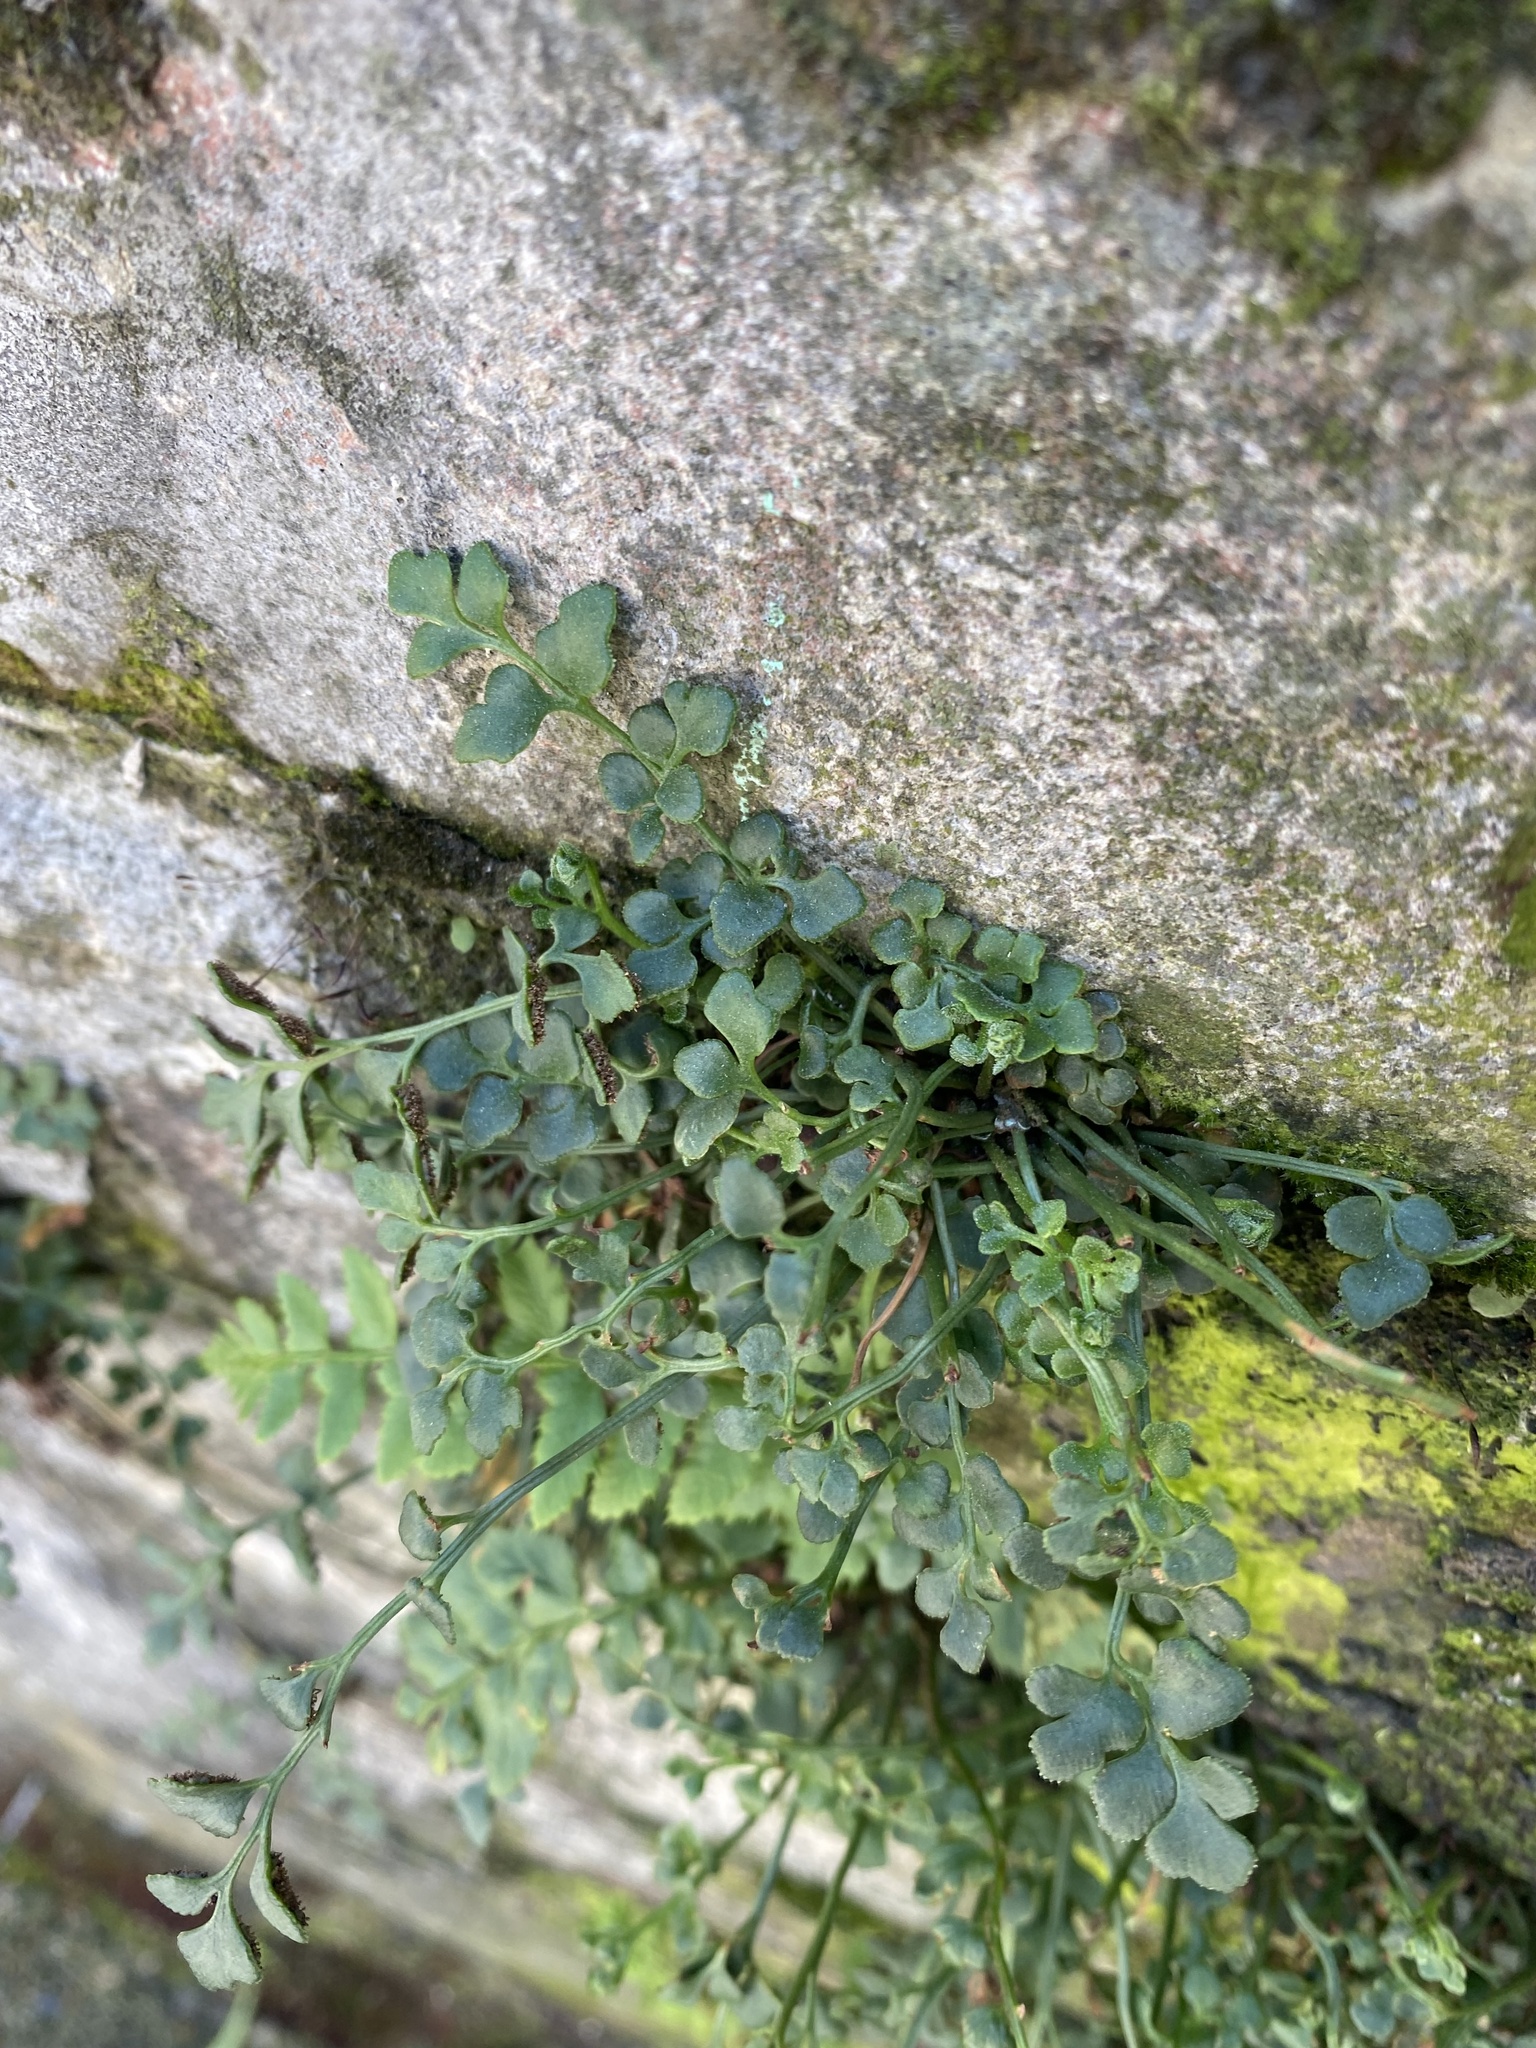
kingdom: Plantae
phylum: Tracheophyta
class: Polypodiopsida
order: Polypodiales
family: Aspleniaceae
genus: Asplenium
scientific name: Asplenium ruta-muraria
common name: Wall-rue
